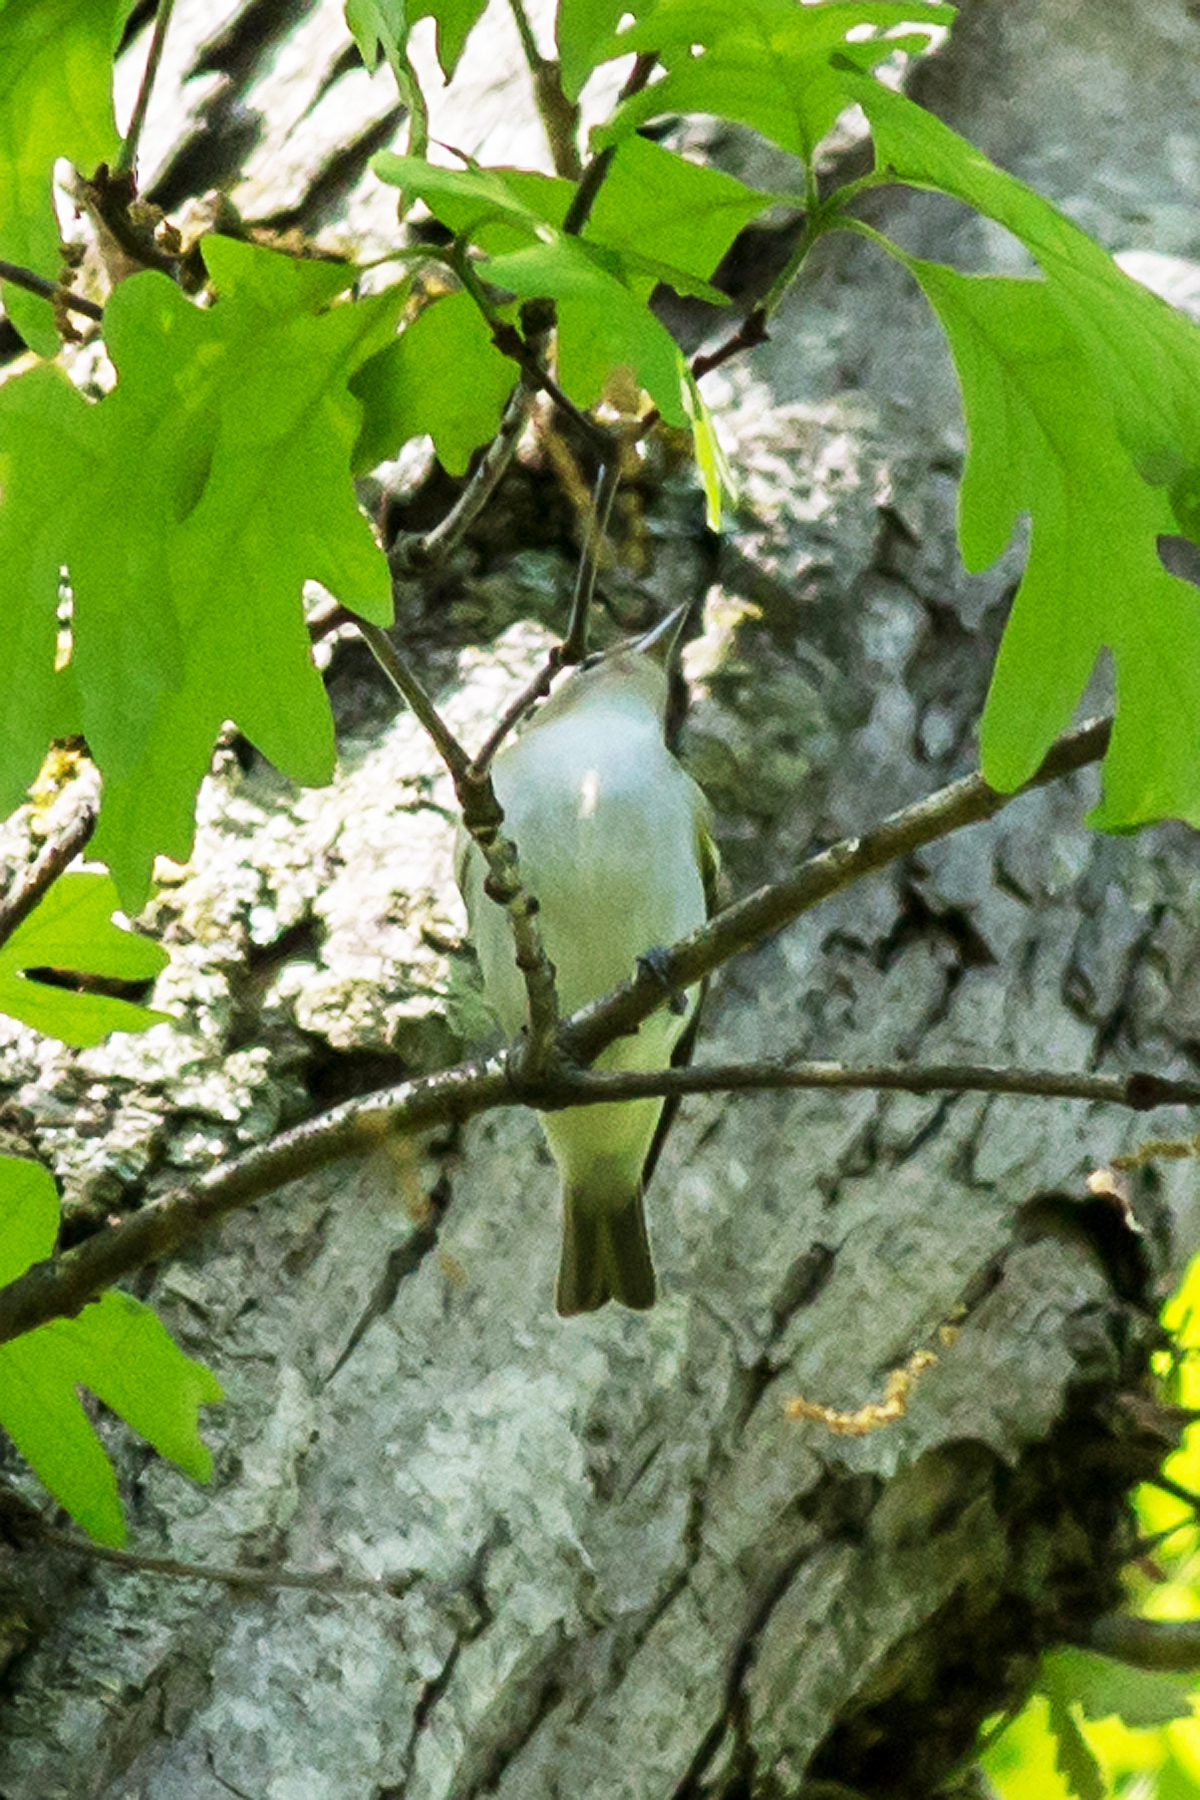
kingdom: Animalia
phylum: Chordata
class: Aves
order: Passeriformes
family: Vireonidae
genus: Vireo
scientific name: Vireo olivaceus
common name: Red-eyed vireo
